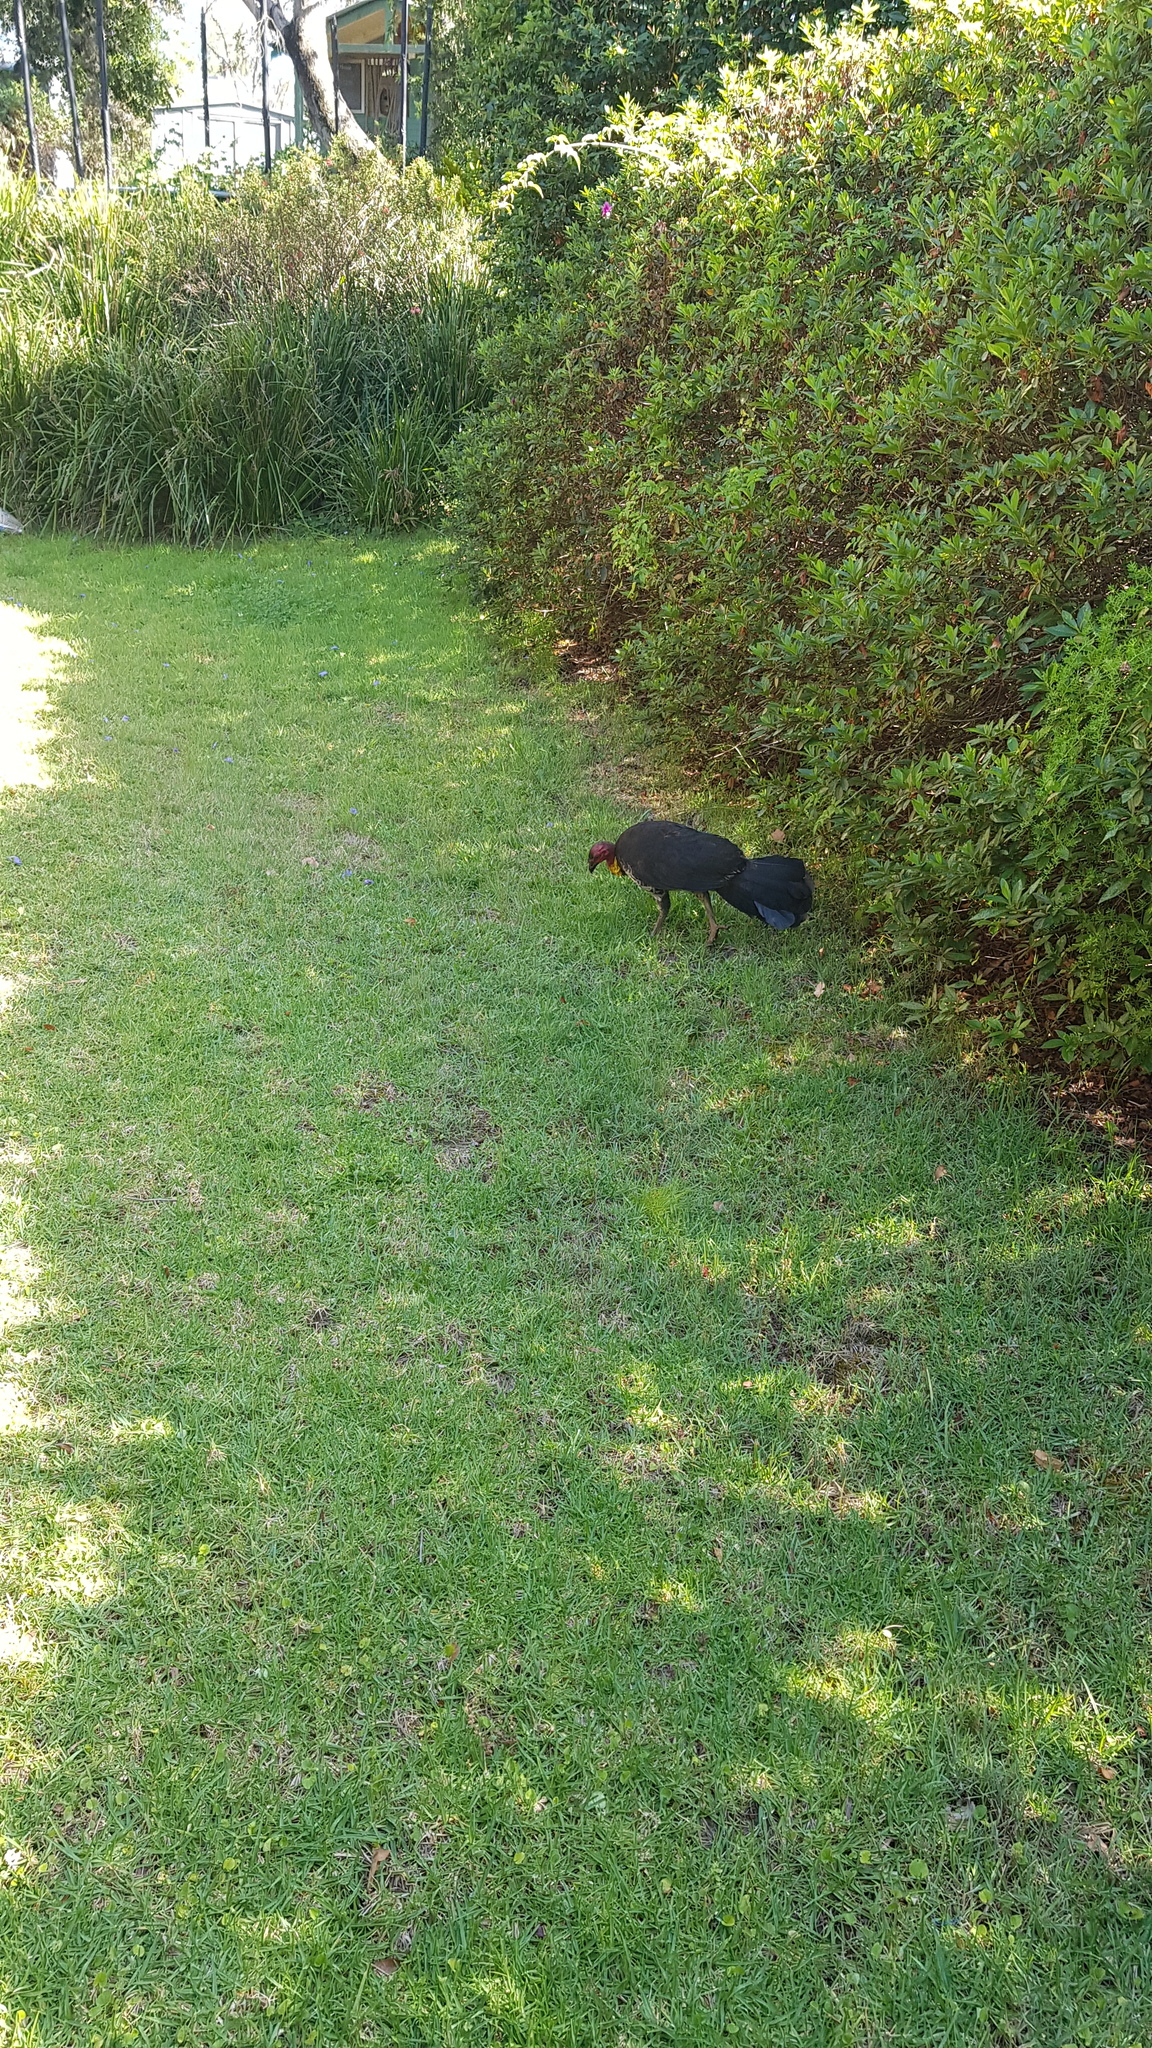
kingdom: Animalia
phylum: Chordata
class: Aves
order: Galliformes
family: Megapodiidae
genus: Alectura
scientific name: Alectura lathami
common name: Australian brushturkey
